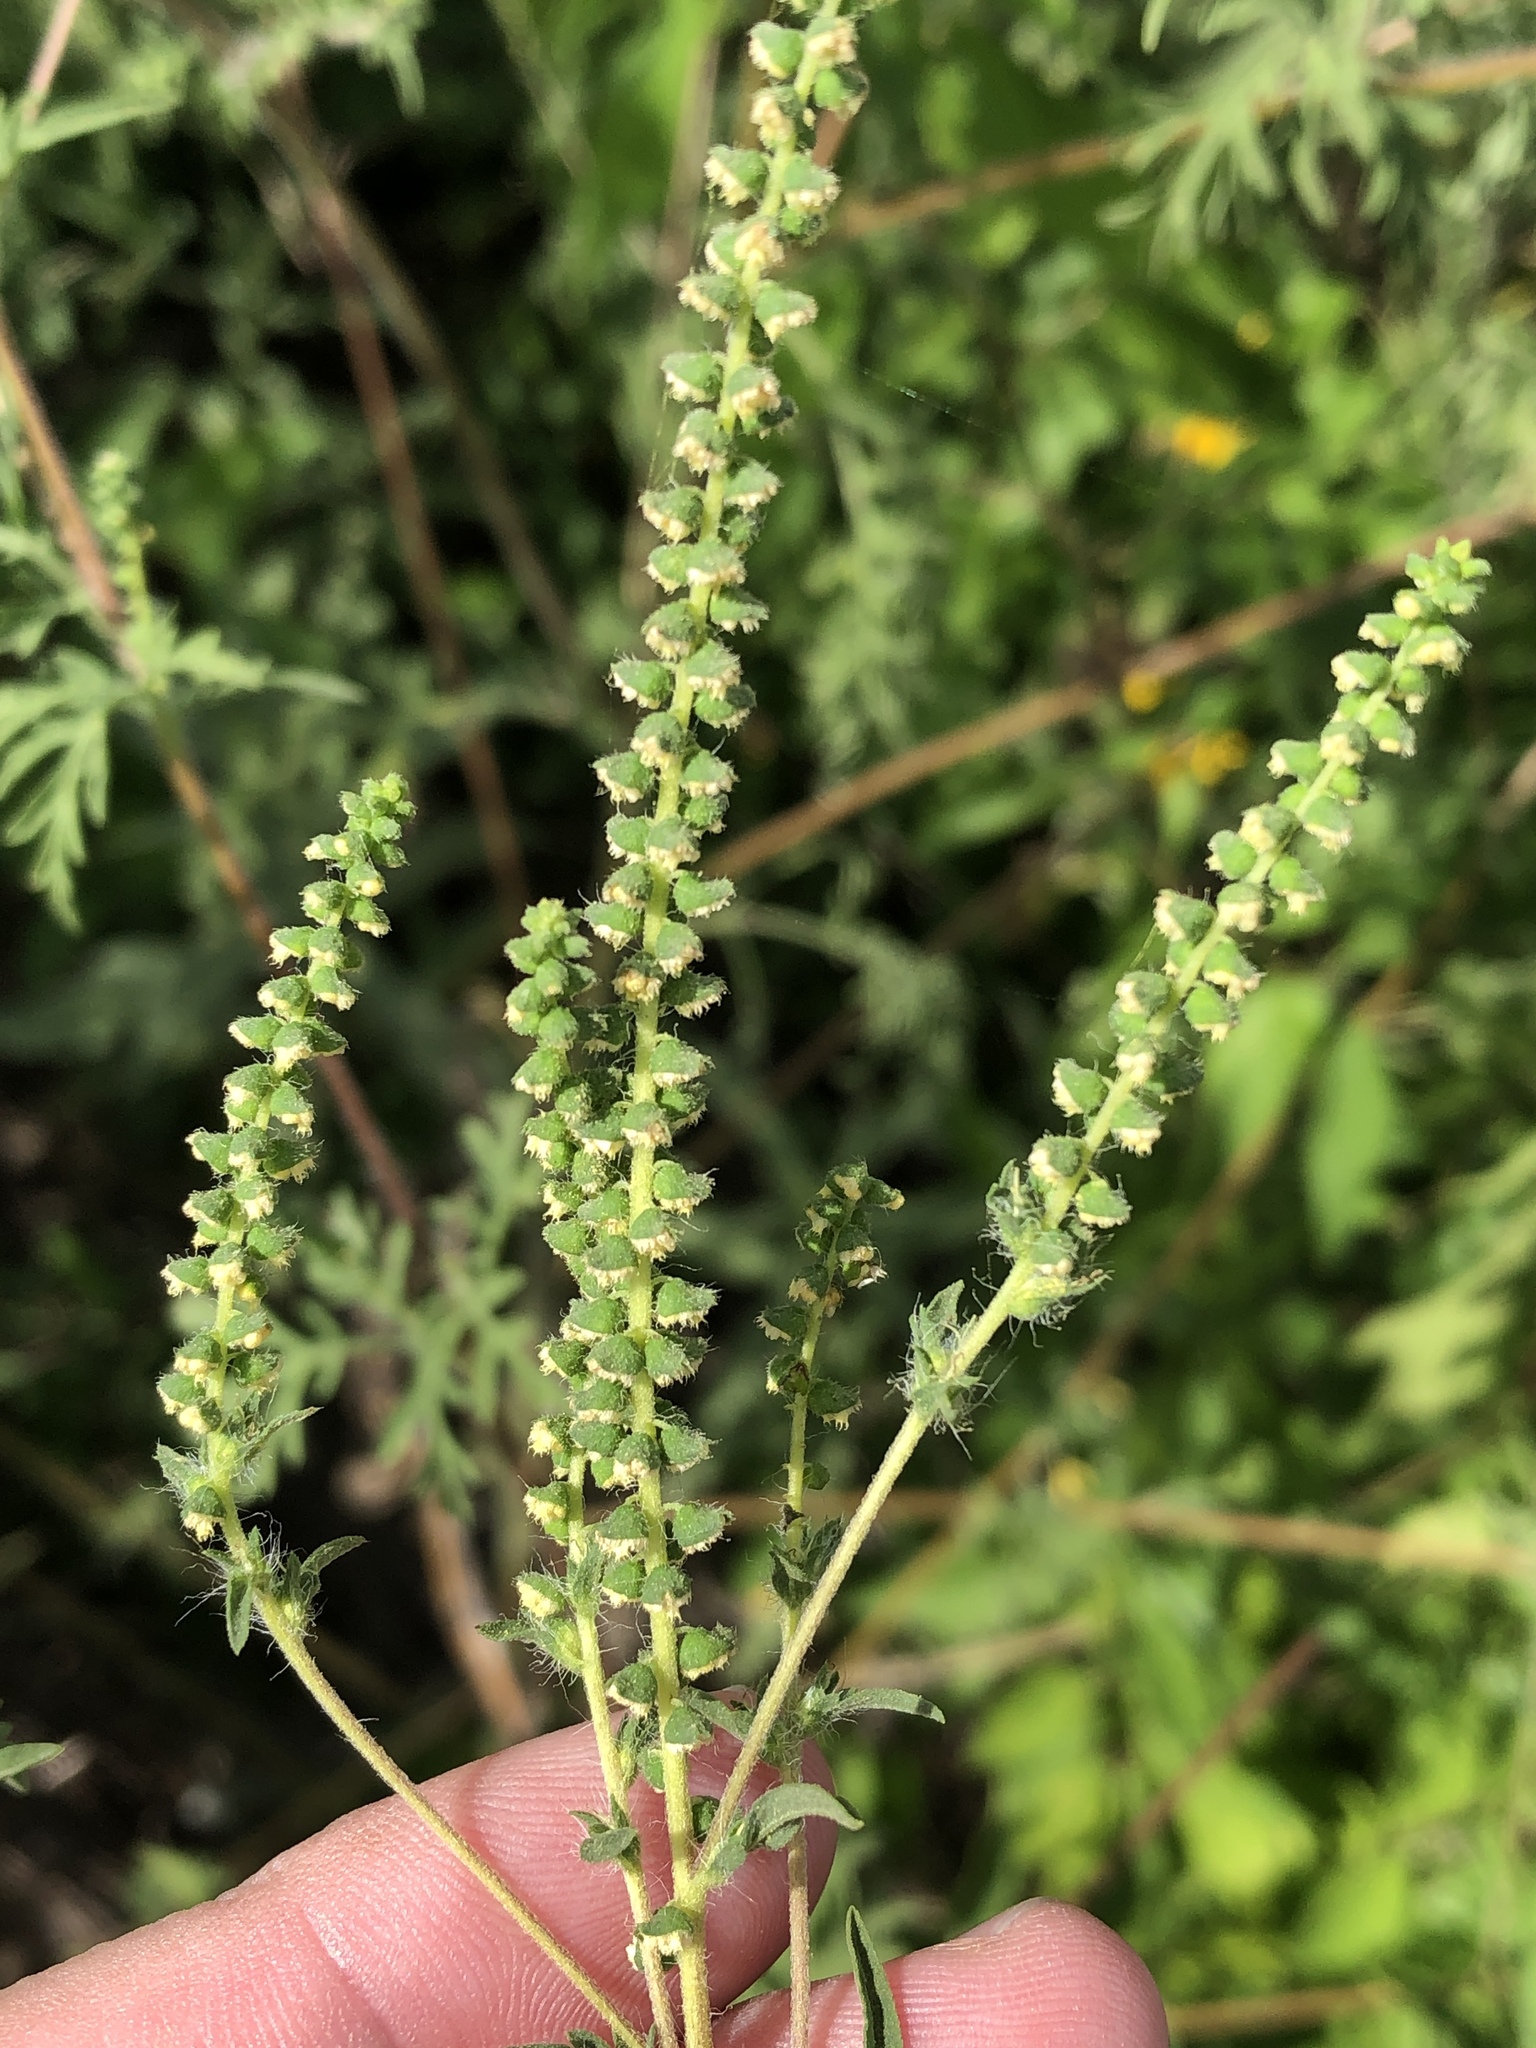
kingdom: Plantae
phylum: Tracheophyta
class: Magnoliopsida
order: Asterales
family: Asteraceae
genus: Ambrosia
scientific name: Ambrosia artemisiifolia
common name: Annual ragweed
